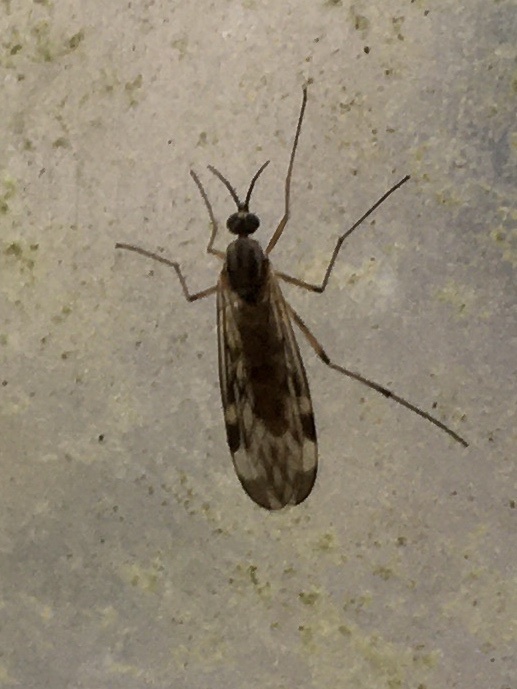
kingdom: Animalia
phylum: Arthropoda
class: Insecta
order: Diptera
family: Anisopodidae
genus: Sylvicola
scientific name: Sylvicola fenestralis
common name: Window gnat
